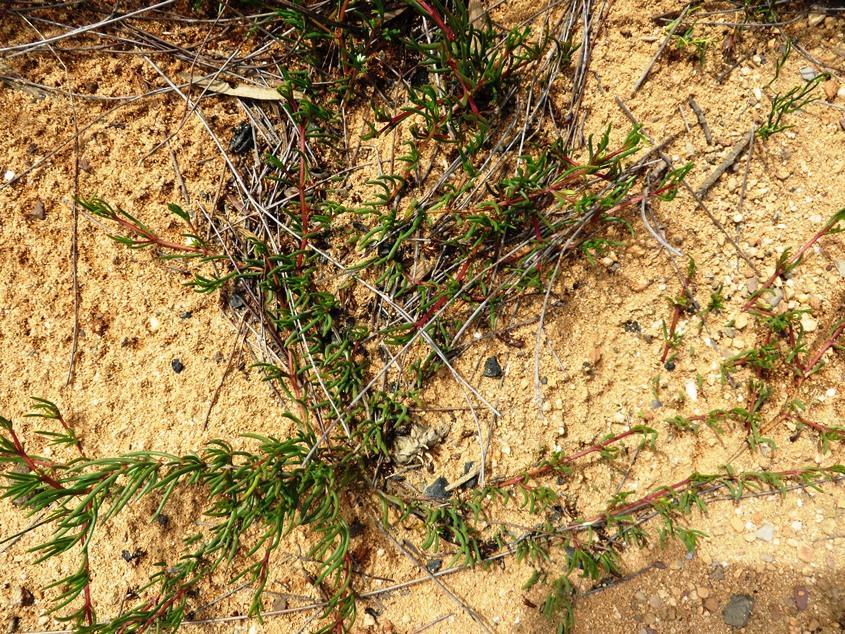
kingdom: Plantae
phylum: Tracheophyta
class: Magnoliopsida
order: Caryophyllales
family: Aizoaceae
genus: Acrosanthes
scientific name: Acrosanthes teretifolia
